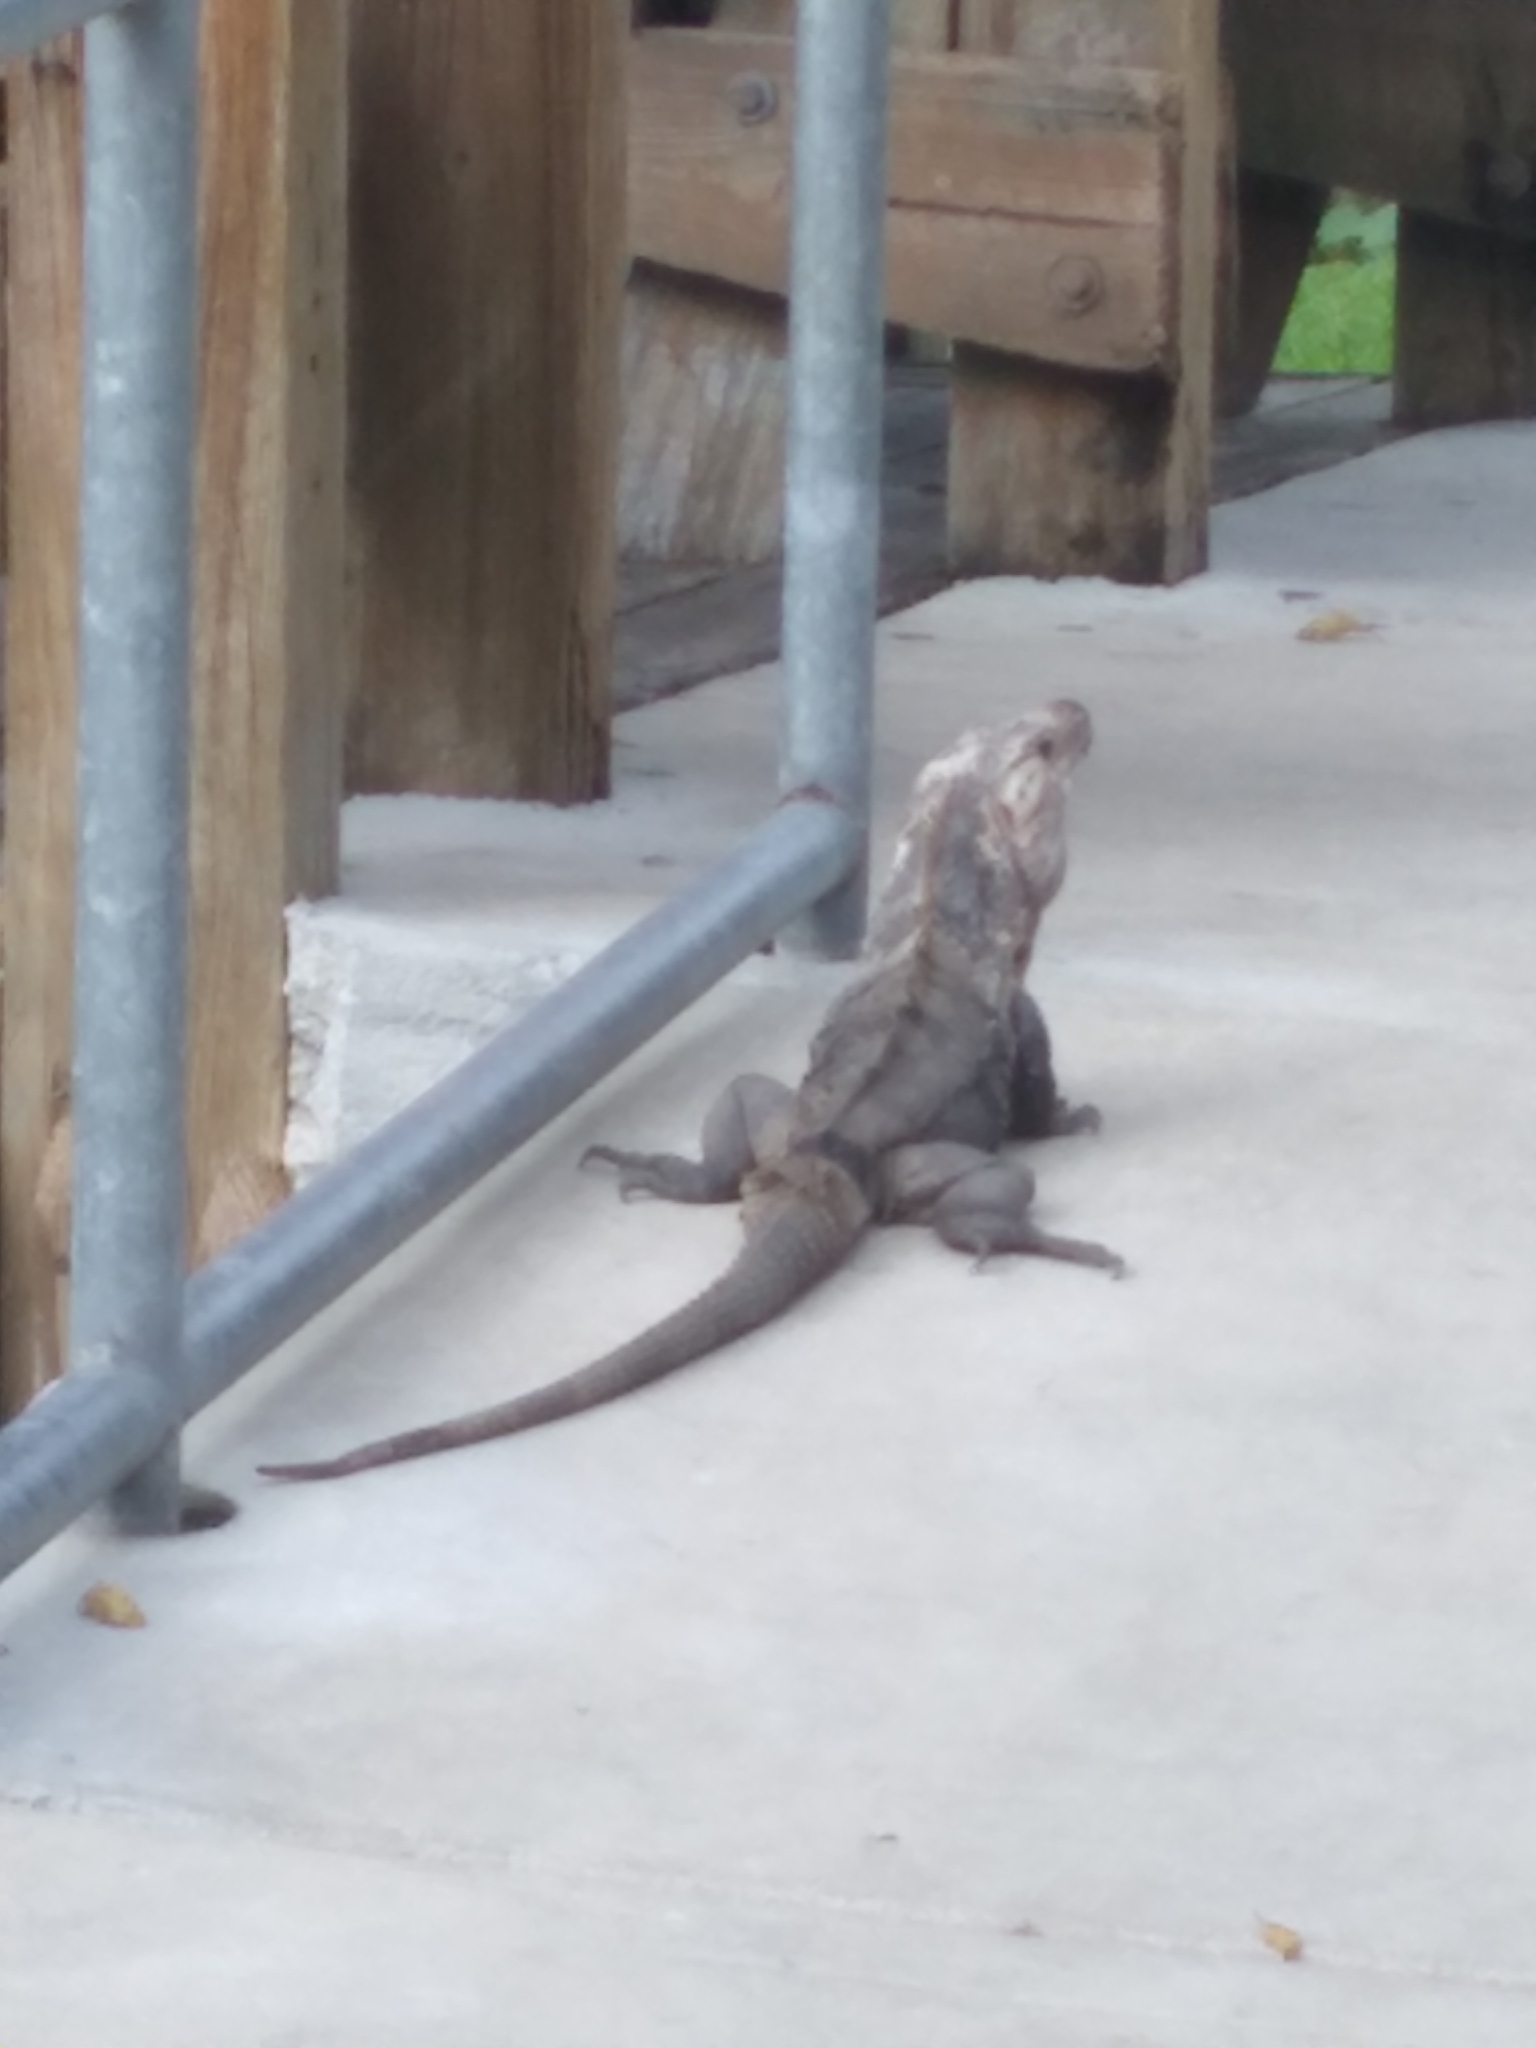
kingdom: Animalia
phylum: Chordata
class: Squamata
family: Iguanidae
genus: Ctenosaura
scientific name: Ctenosaura similis
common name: Black spiny-tailed iguana
